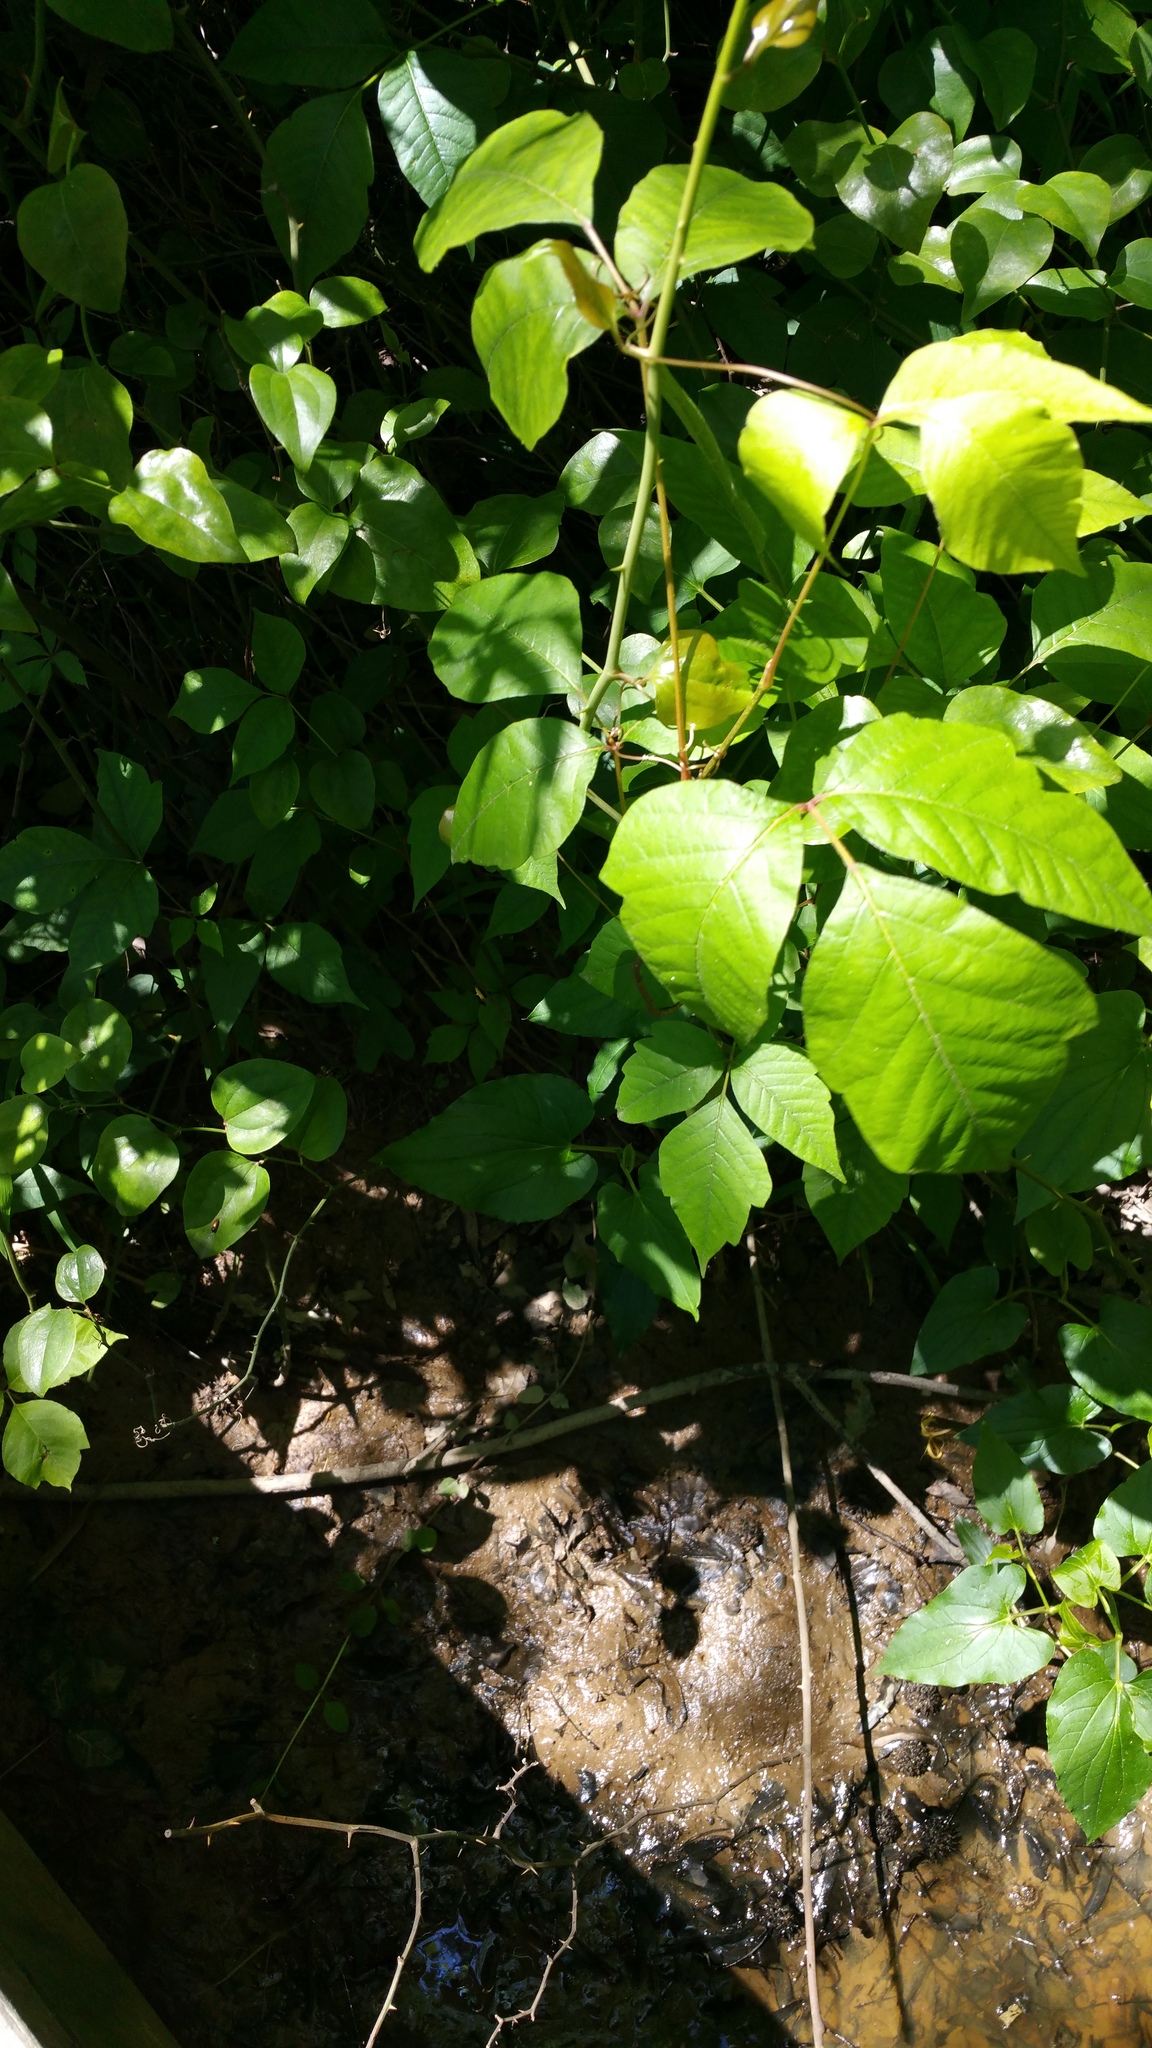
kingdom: Plantae
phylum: Tracheophyta
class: Magnoliopsida
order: Sapindales
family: Anacardiaceae
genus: Toxicodendron
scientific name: Toxicodendron radicans
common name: Poison ivy
